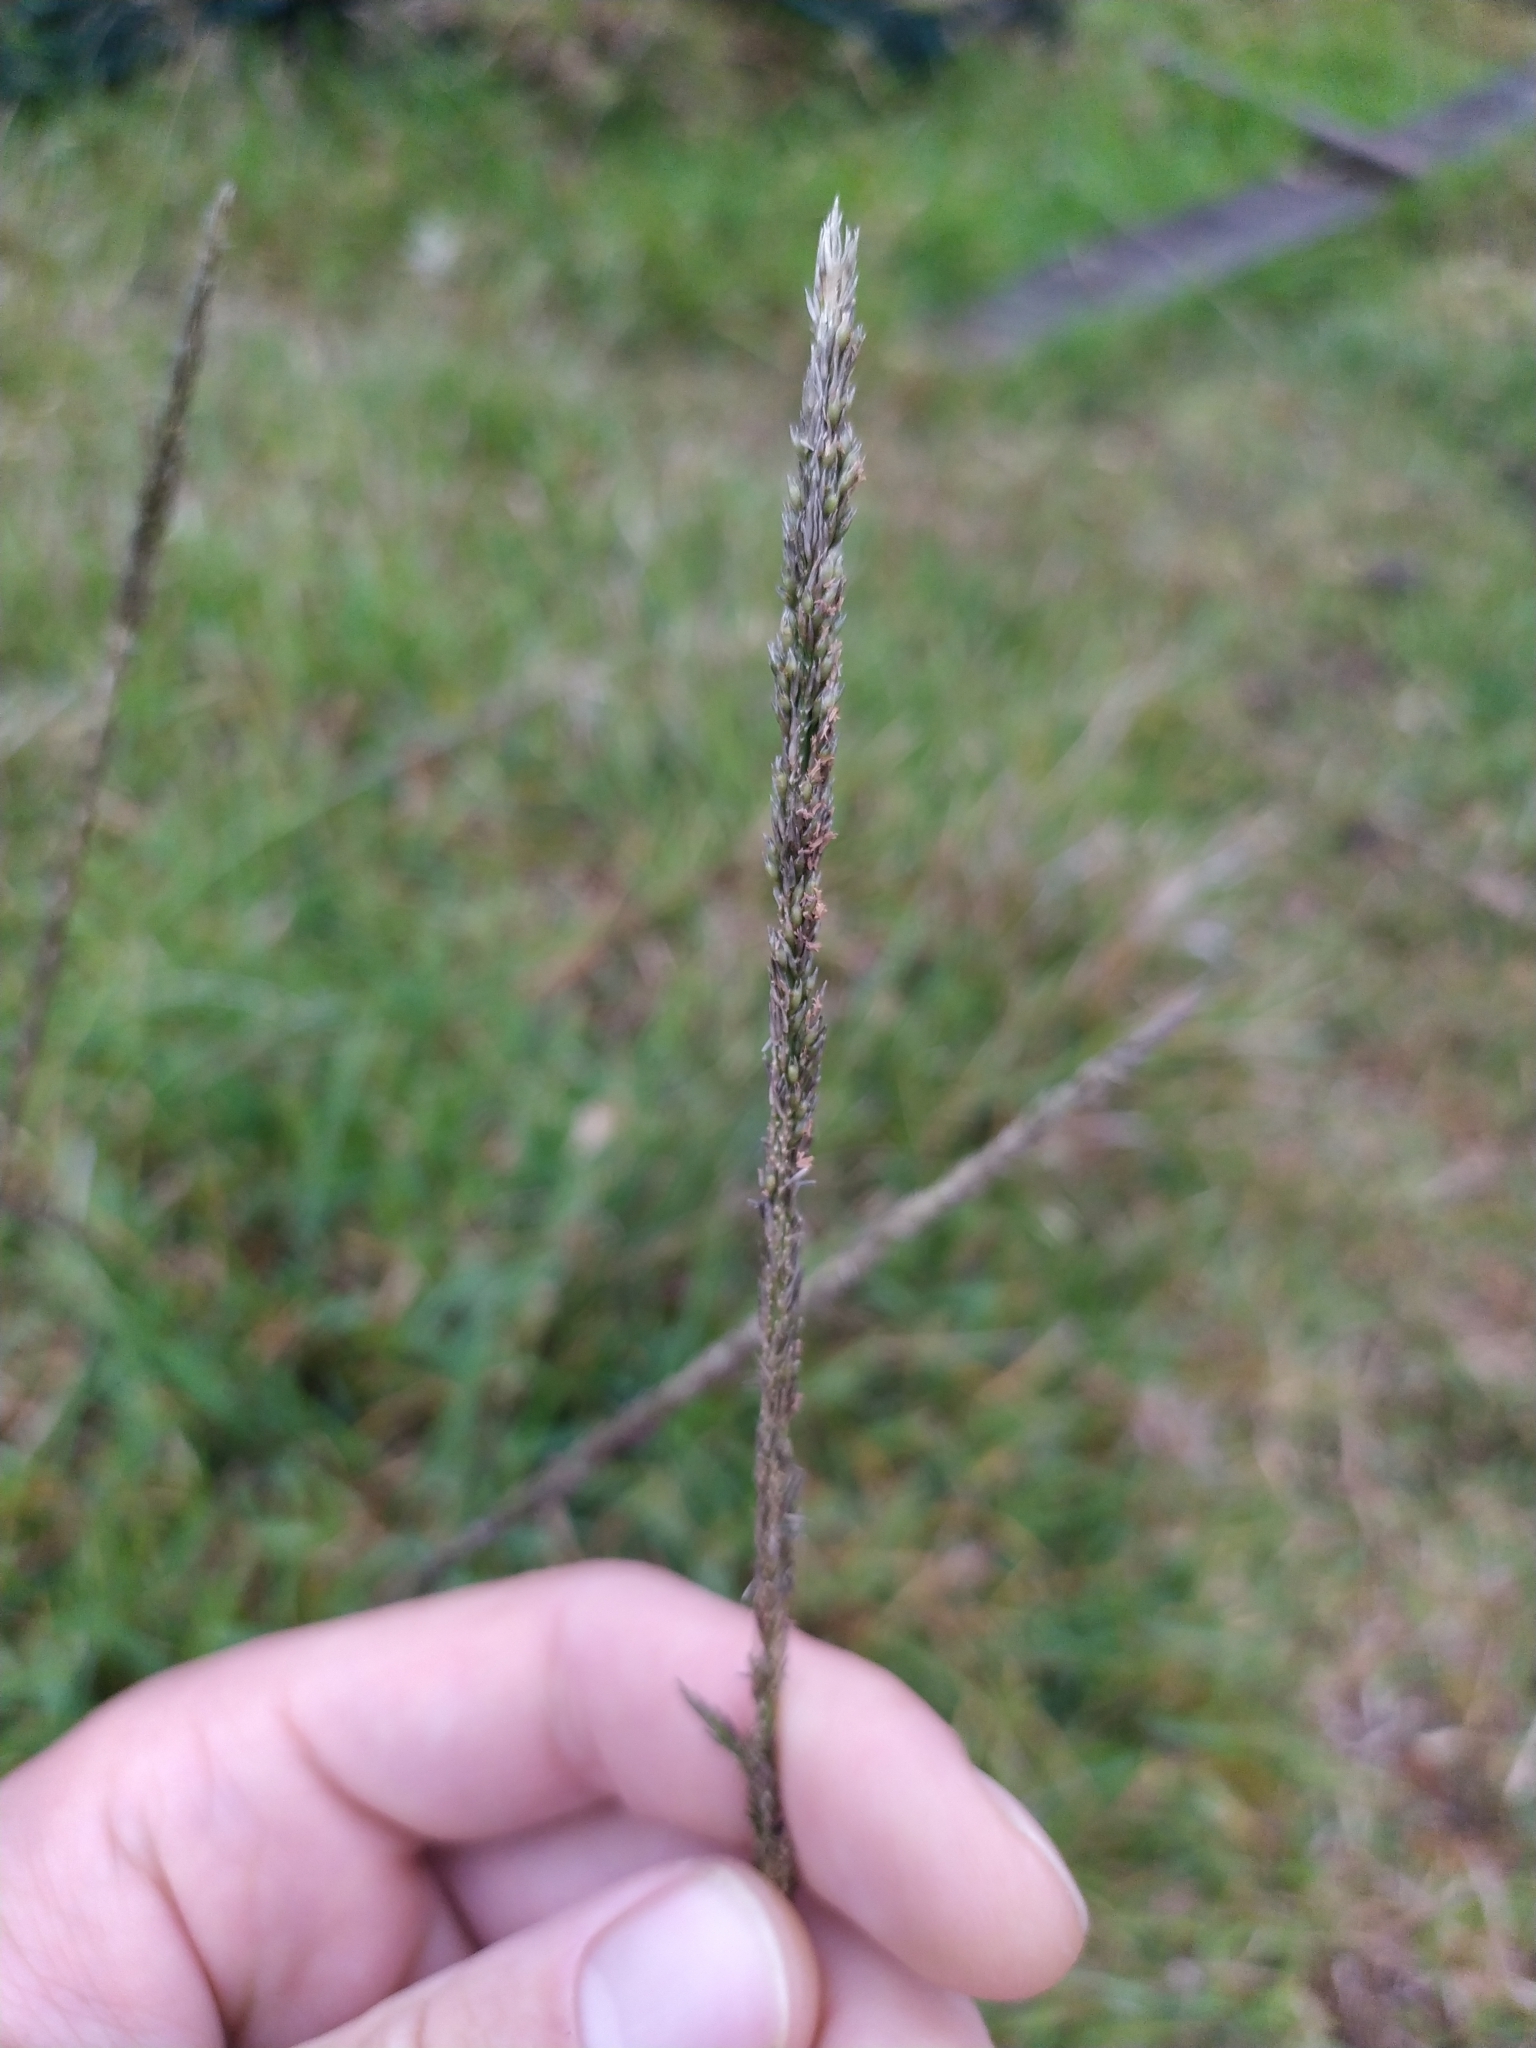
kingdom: Plantae
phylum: Tracheophyta
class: Liliopsida
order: Poales
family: Poaceae
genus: Sporobolus
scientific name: Sporobolus africanus
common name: African dropseed
